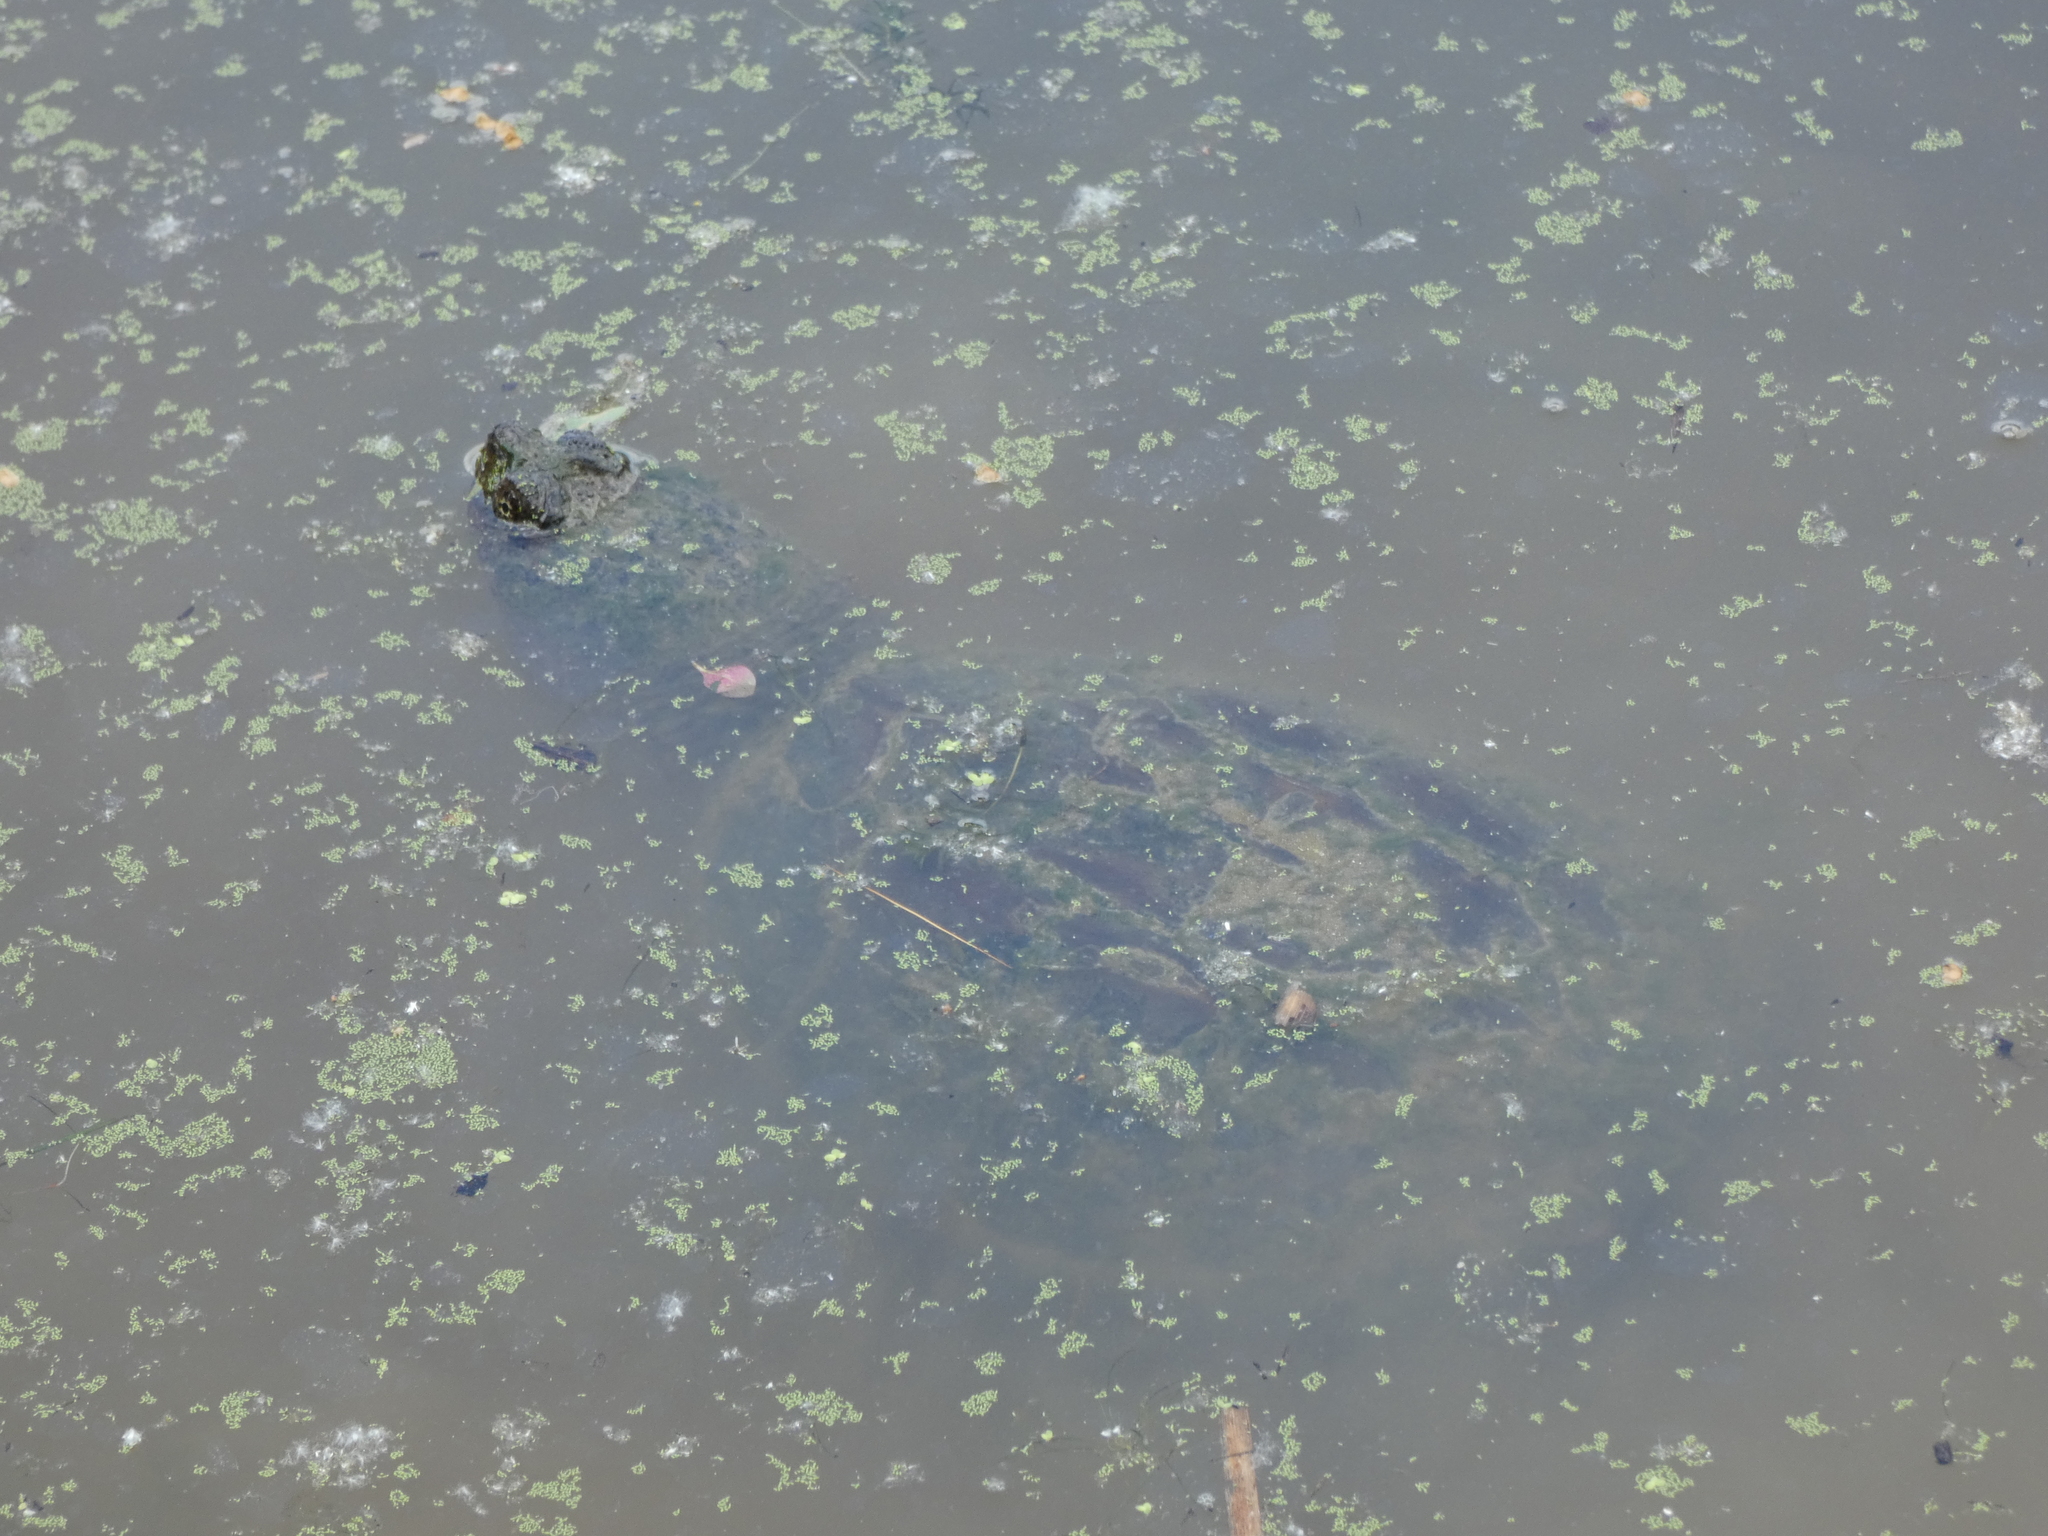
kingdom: Animalia
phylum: Chordata
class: Testudines
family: Chelydridae
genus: Chelydra
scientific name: Chelydra serpentina
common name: Common snapping turtle
